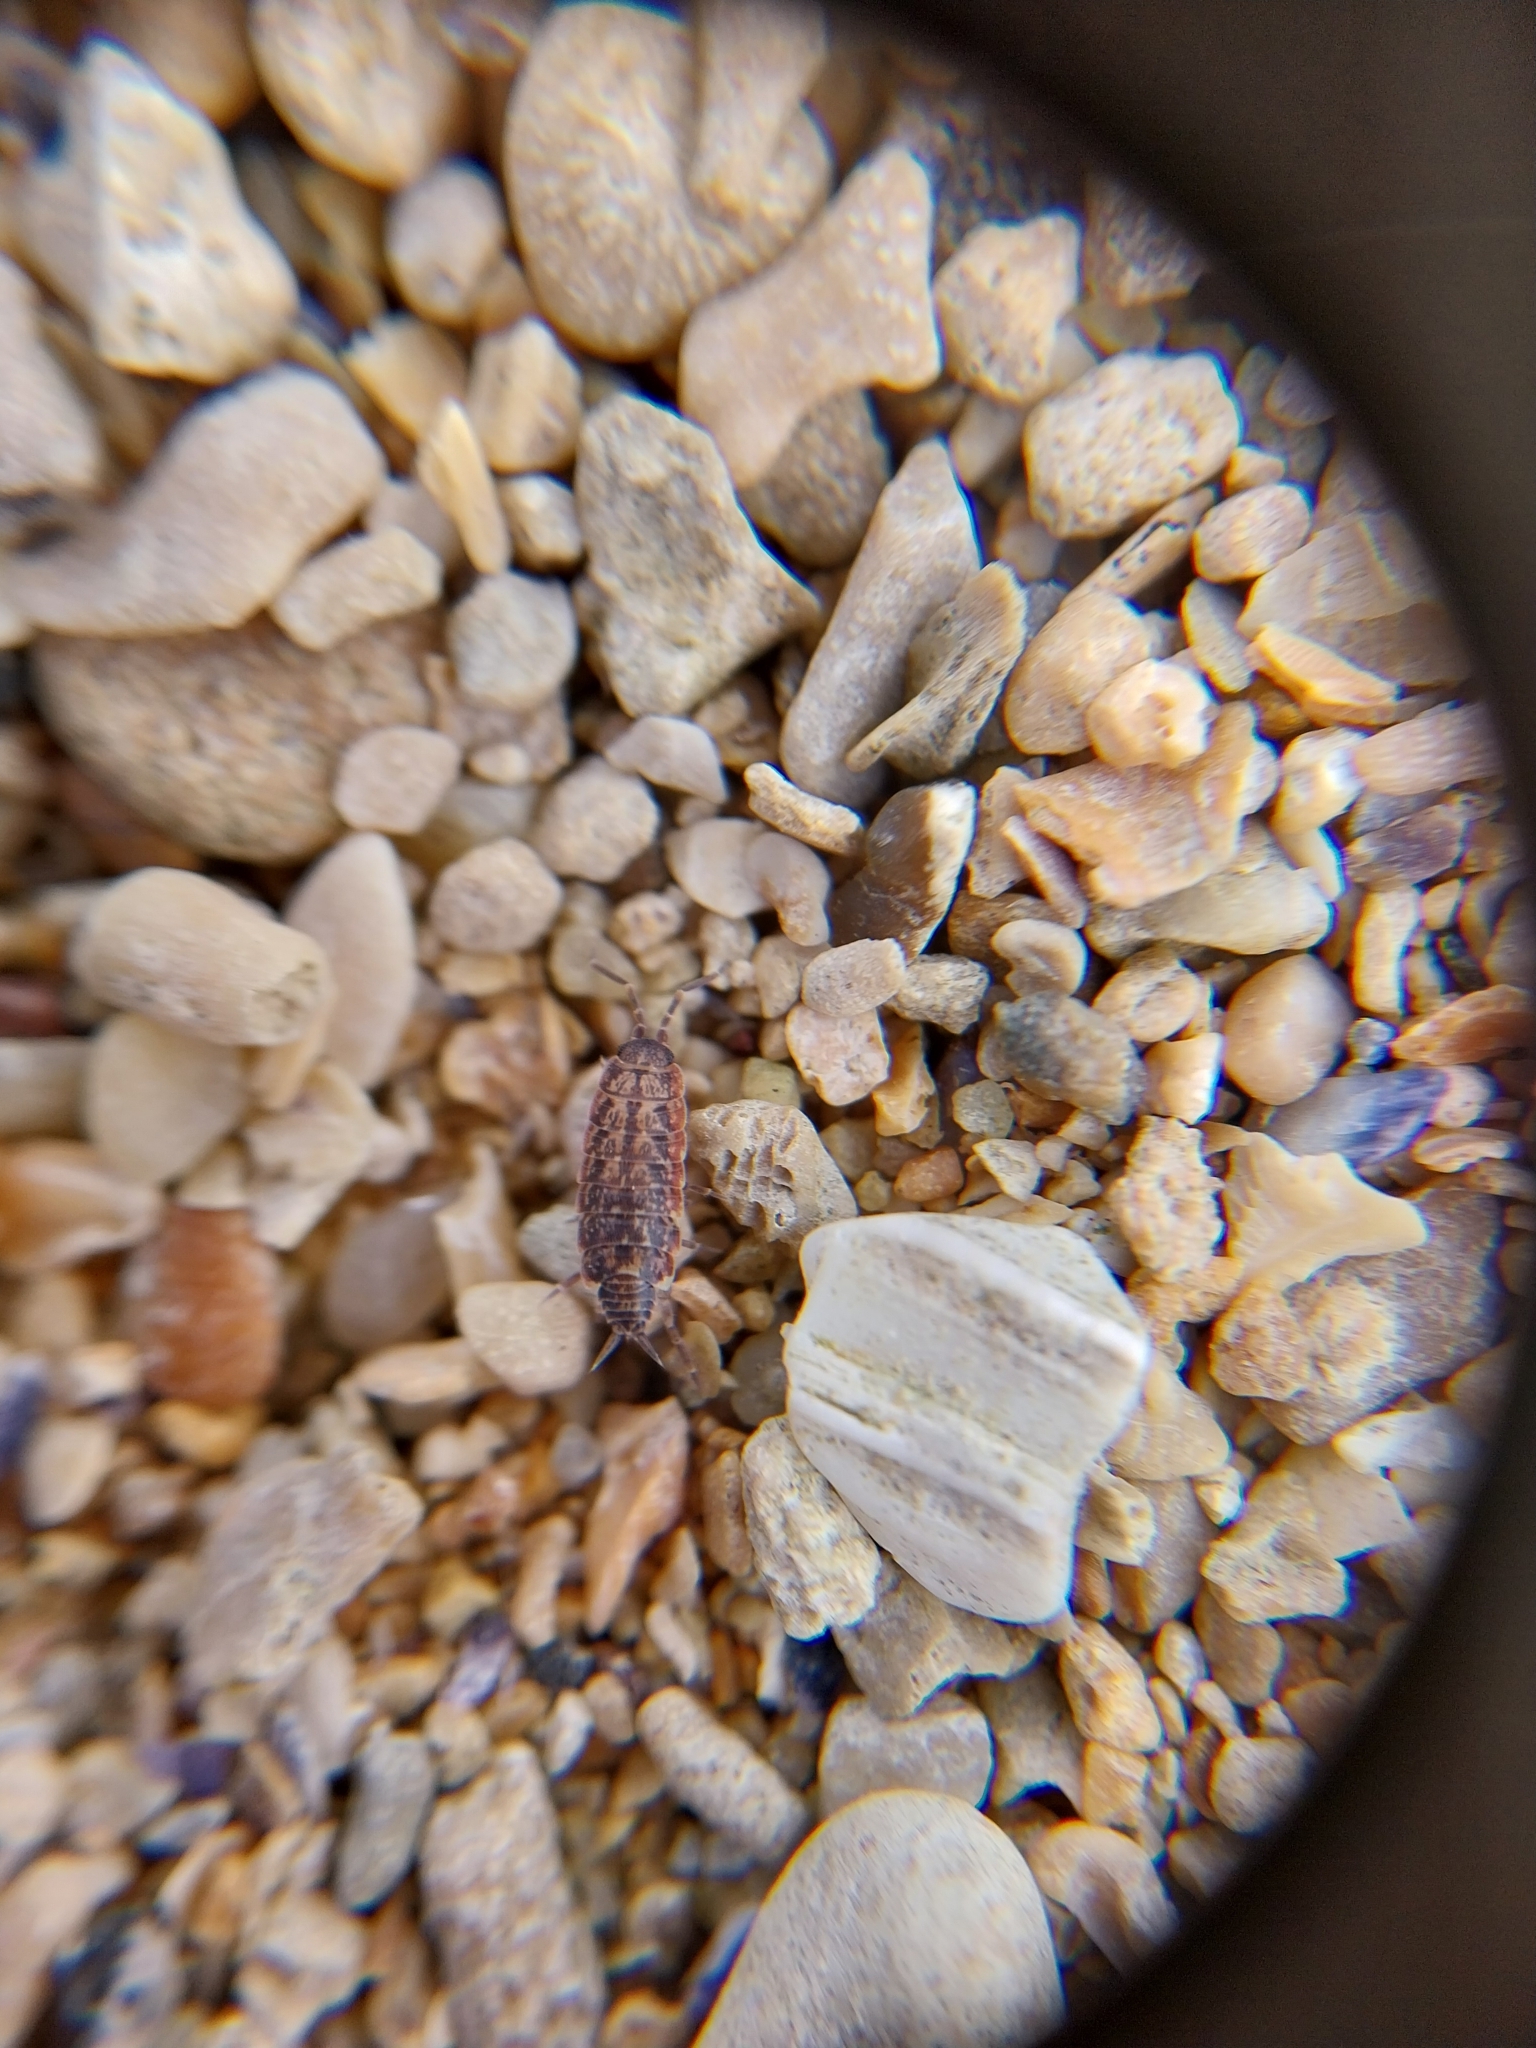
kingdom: Animalia
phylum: Arthropoda
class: Malacostraca
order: Isopoda
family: Porcellionidae
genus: Porcellionides
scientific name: Porcellionides cingendus
